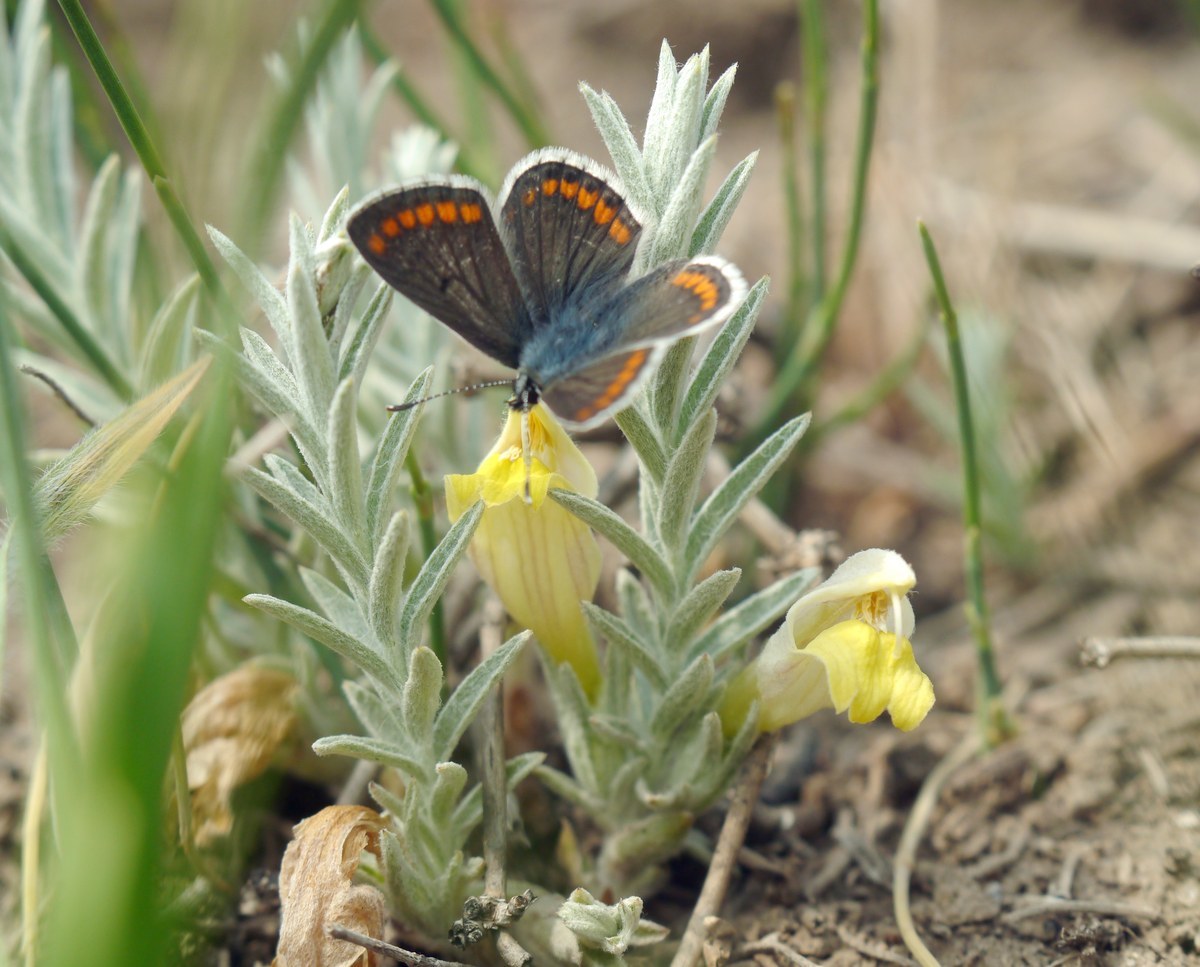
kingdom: Plantae
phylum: Tracheophyta
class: Magnoliopsida
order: Lamiales
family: Orobanchaceae
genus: Cymbaria
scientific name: Cymbaria borysthenica
